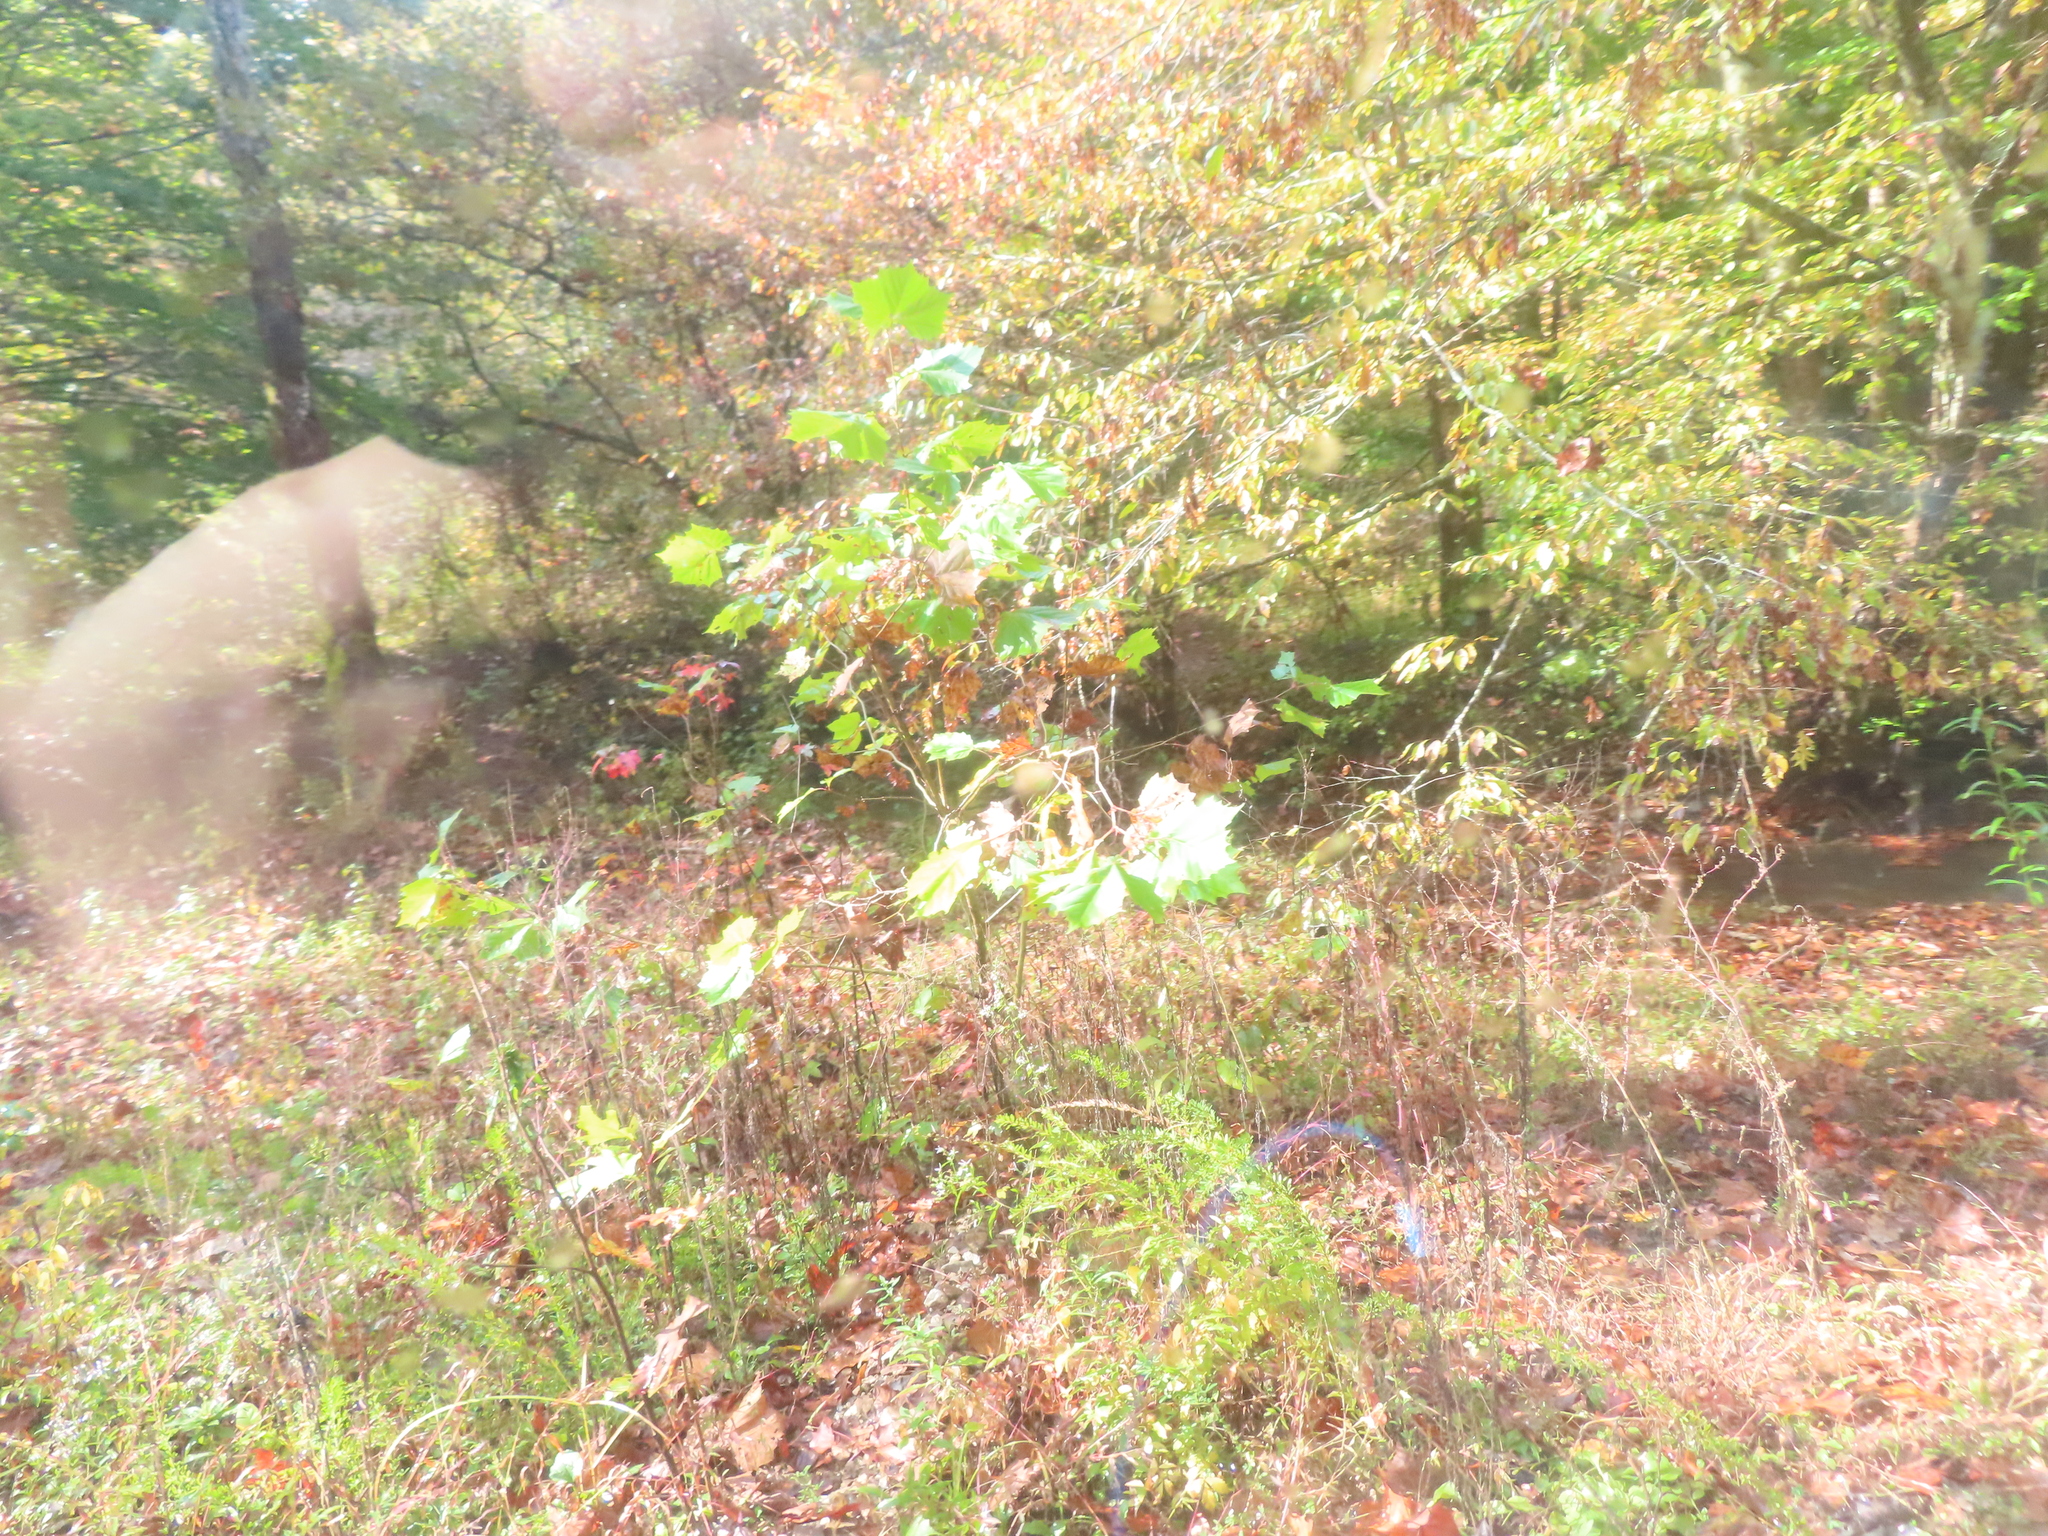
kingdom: Plantae
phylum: Tracheophyta
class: Magnoliopsida
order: Proteales
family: Platanaceae
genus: Platanus
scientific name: Platanus occidentalis
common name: American sycamore
